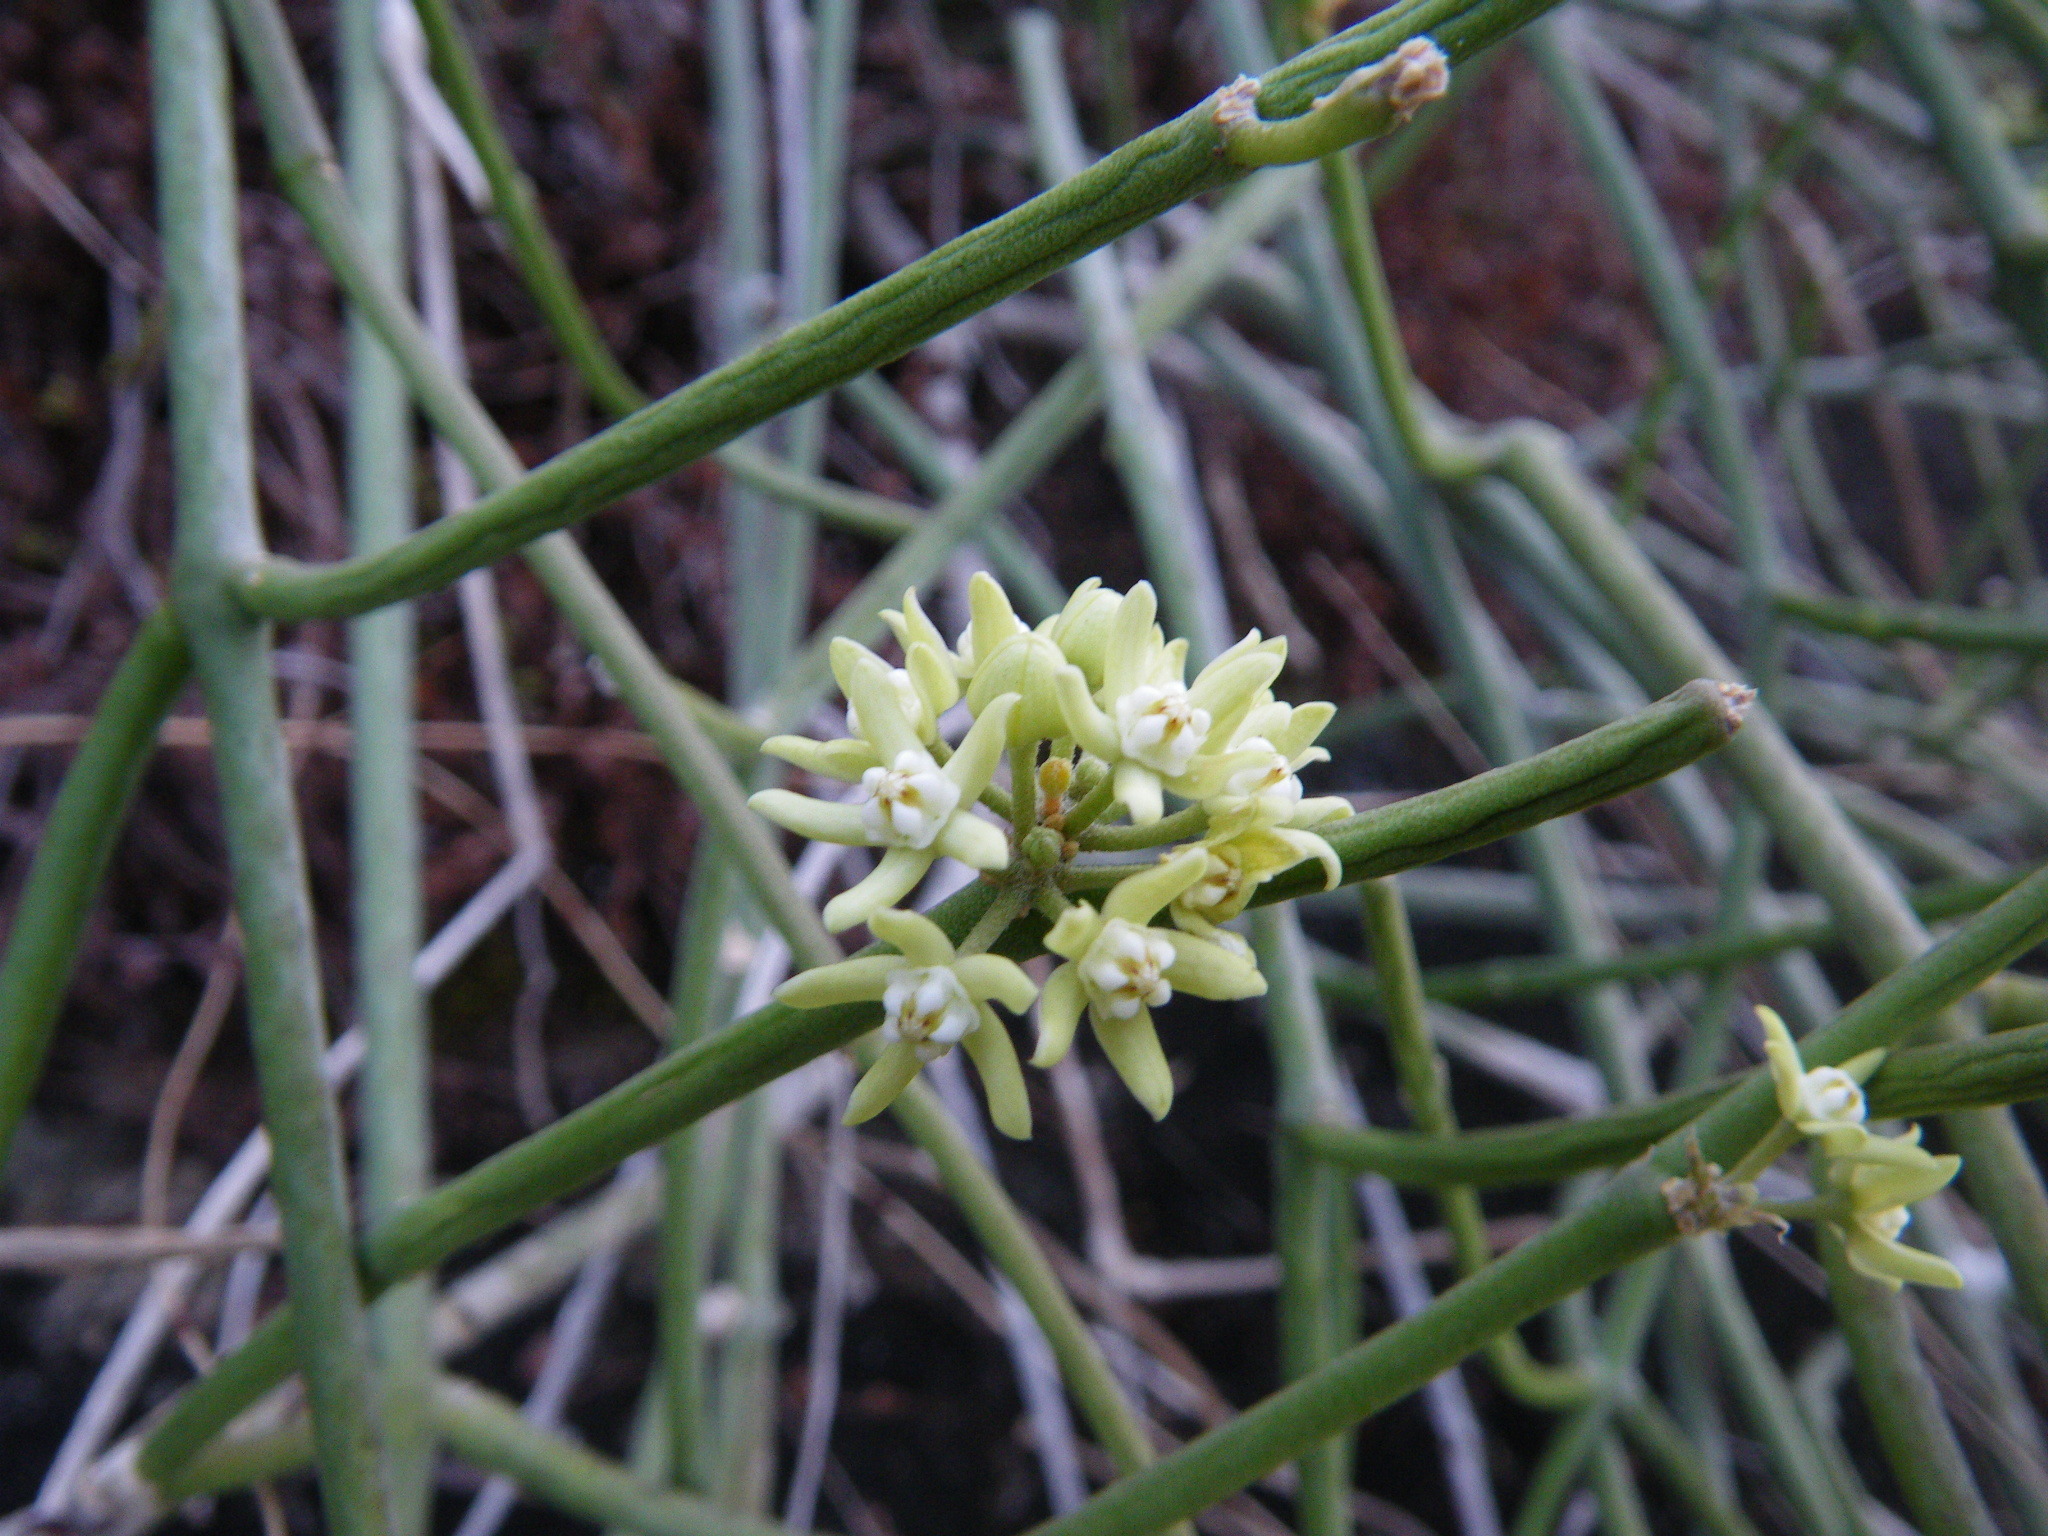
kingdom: Plantae
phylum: Tracheophyta
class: Magnoliopsida
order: Gentianales
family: Apocynaceae
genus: Cynanchum
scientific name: Cynanchum viminale
